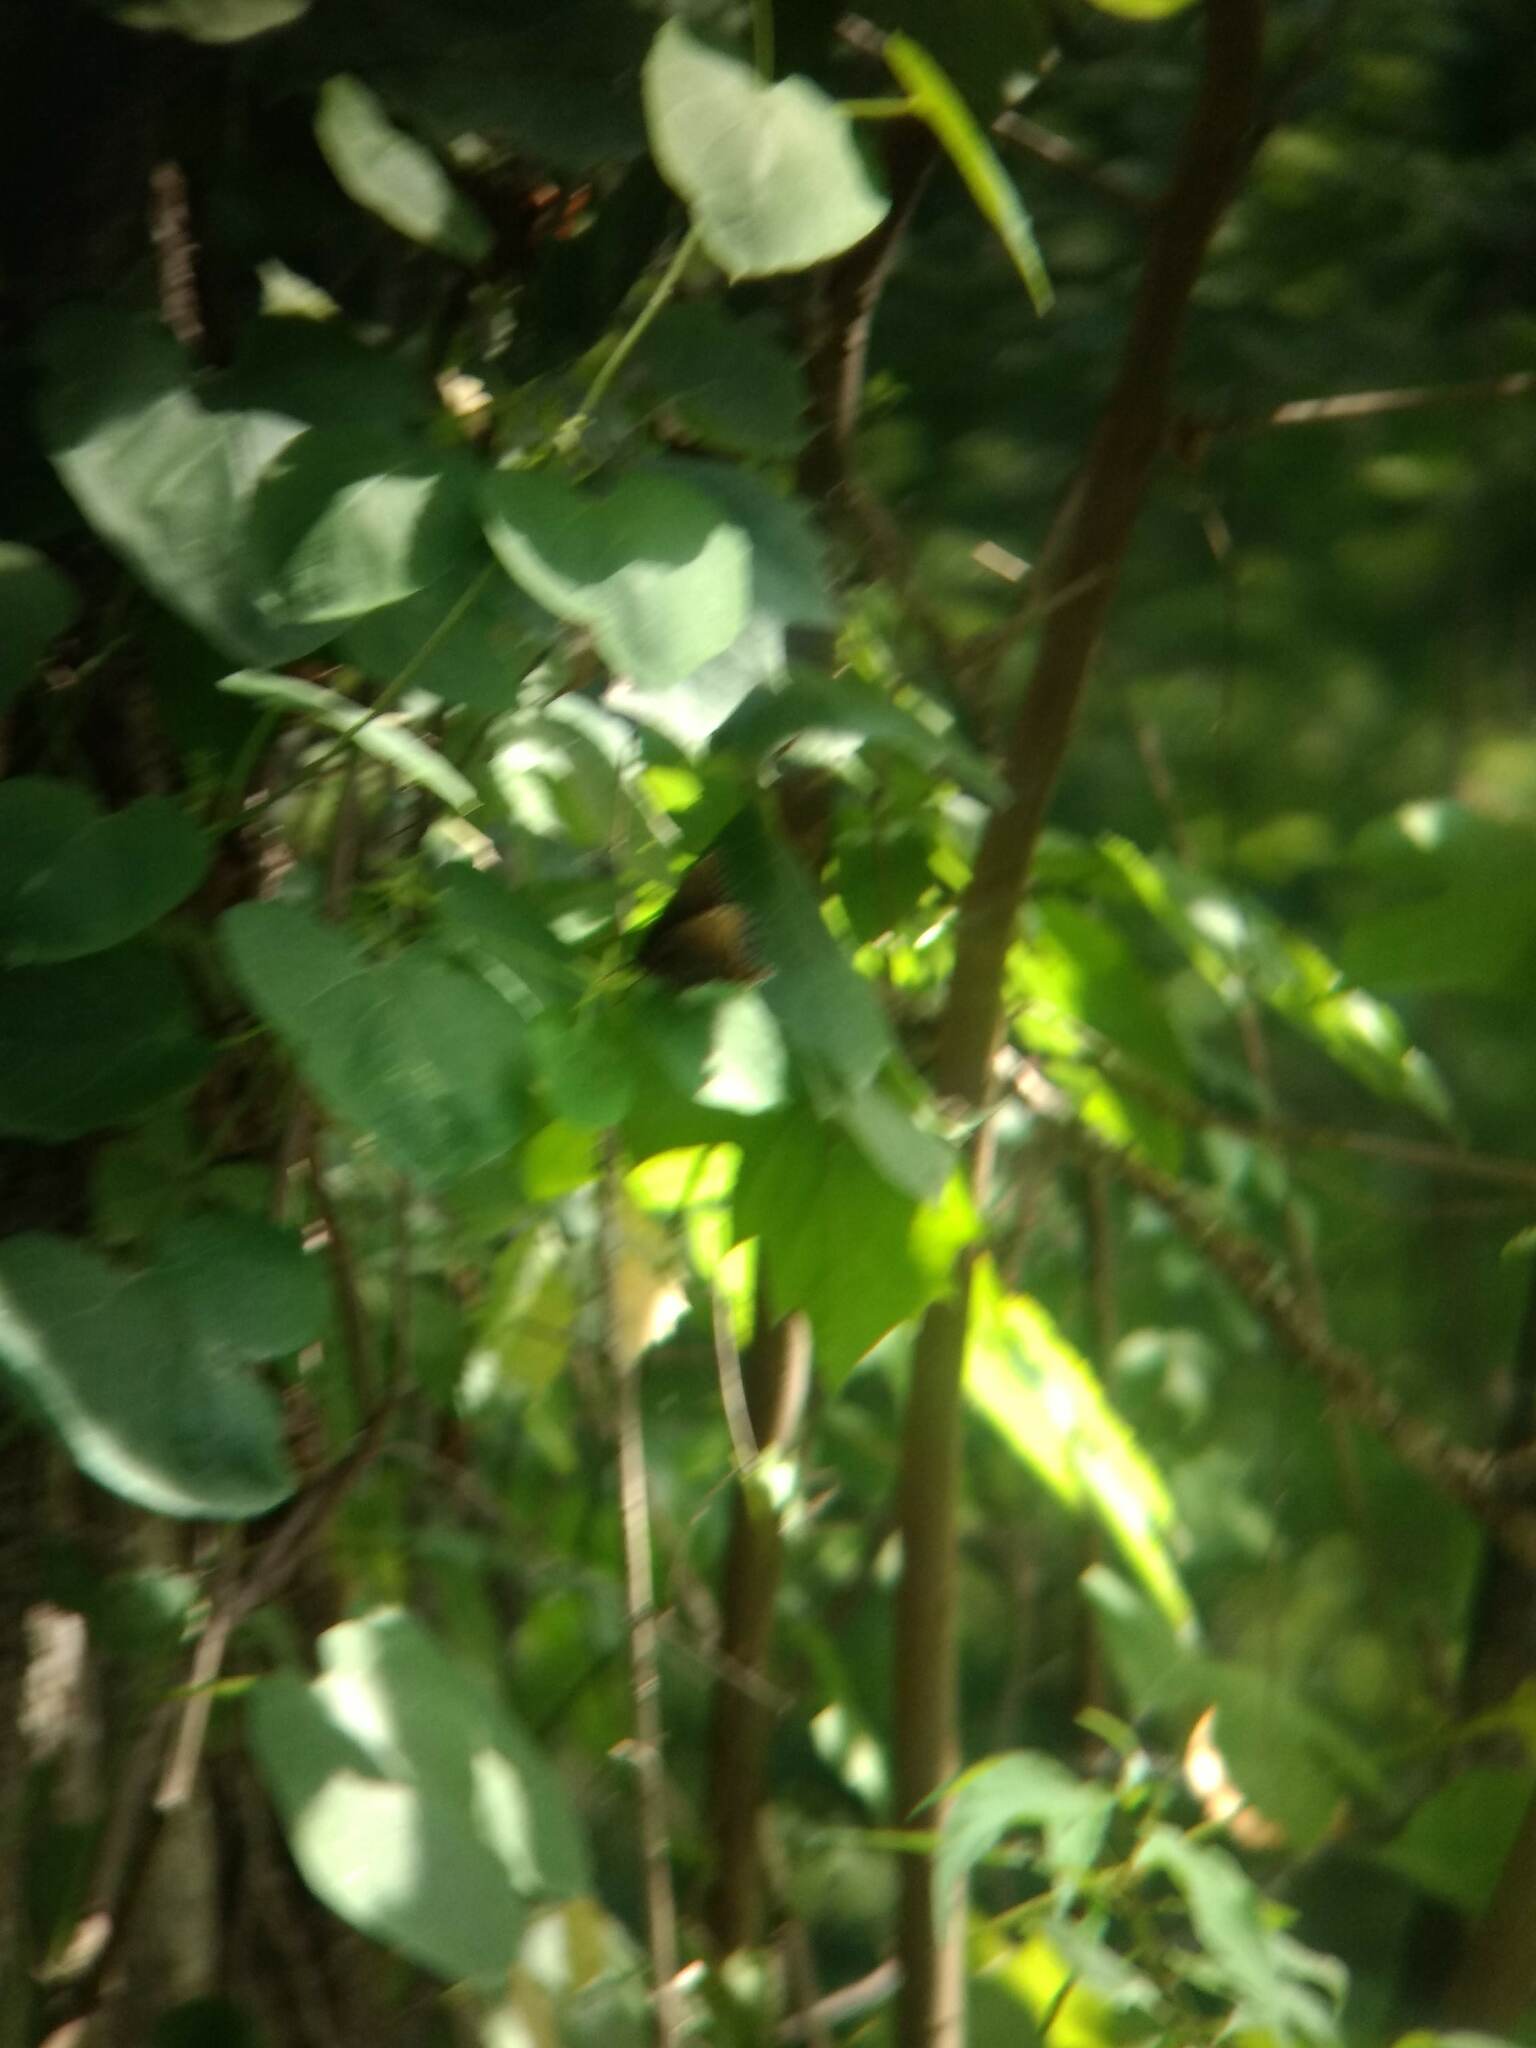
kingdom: Animalia
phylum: Arthropoda
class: Insecta
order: Lepidoptera
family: Nymphalidae
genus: Limenitis
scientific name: Limenitis arthemis
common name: Red-spotted admiral
